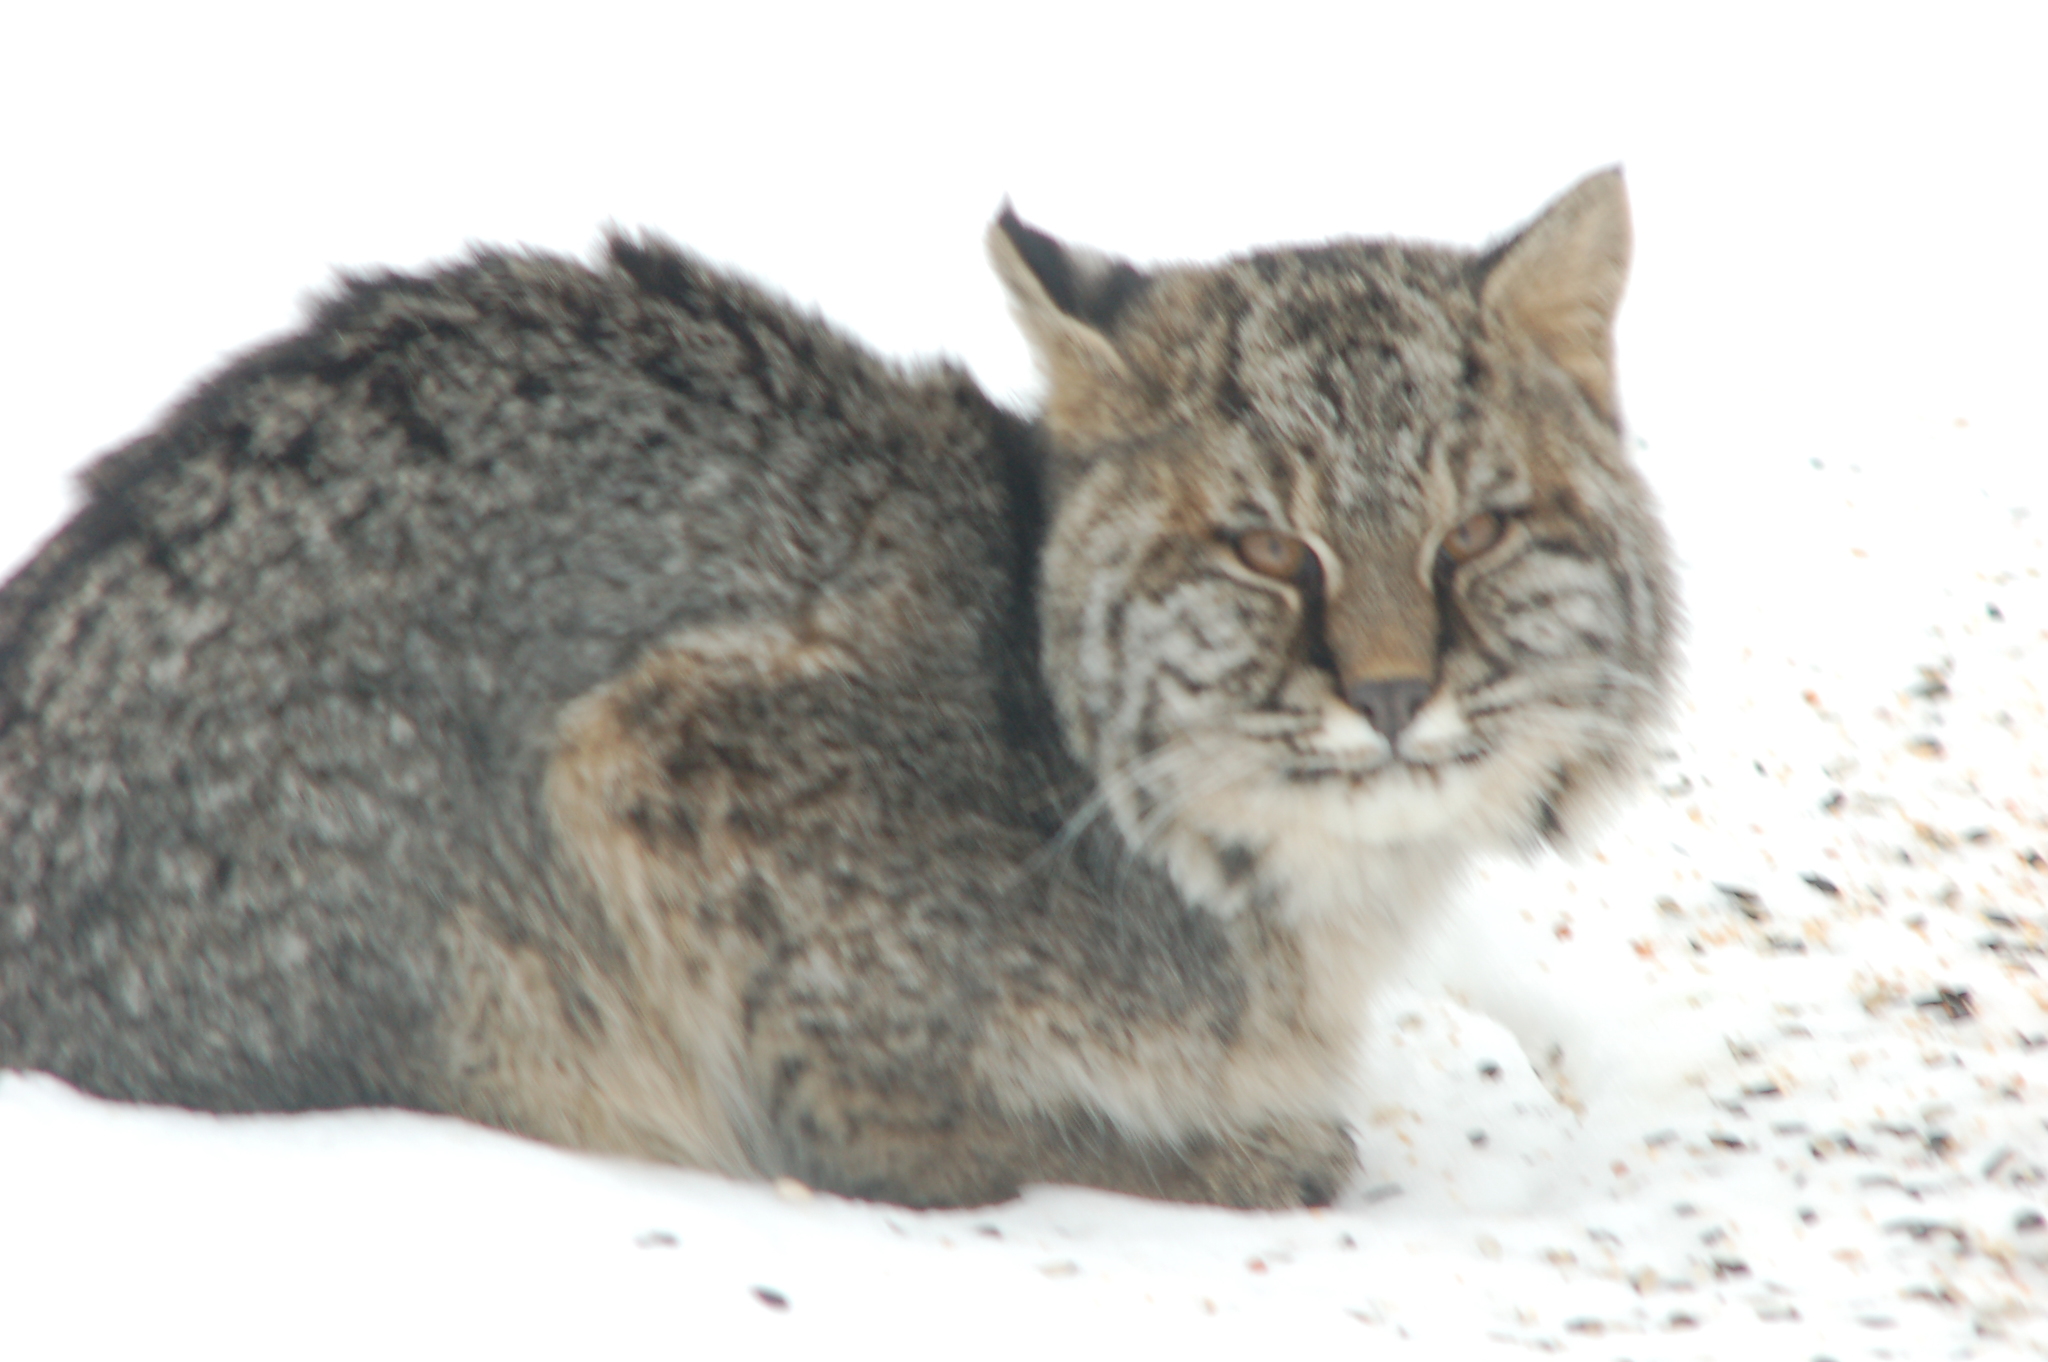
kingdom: Animalia
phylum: Chordata
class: Mammalia
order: Carnivora
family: Felidae
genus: Lynx
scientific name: Lynx rufus
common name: Bobcat
